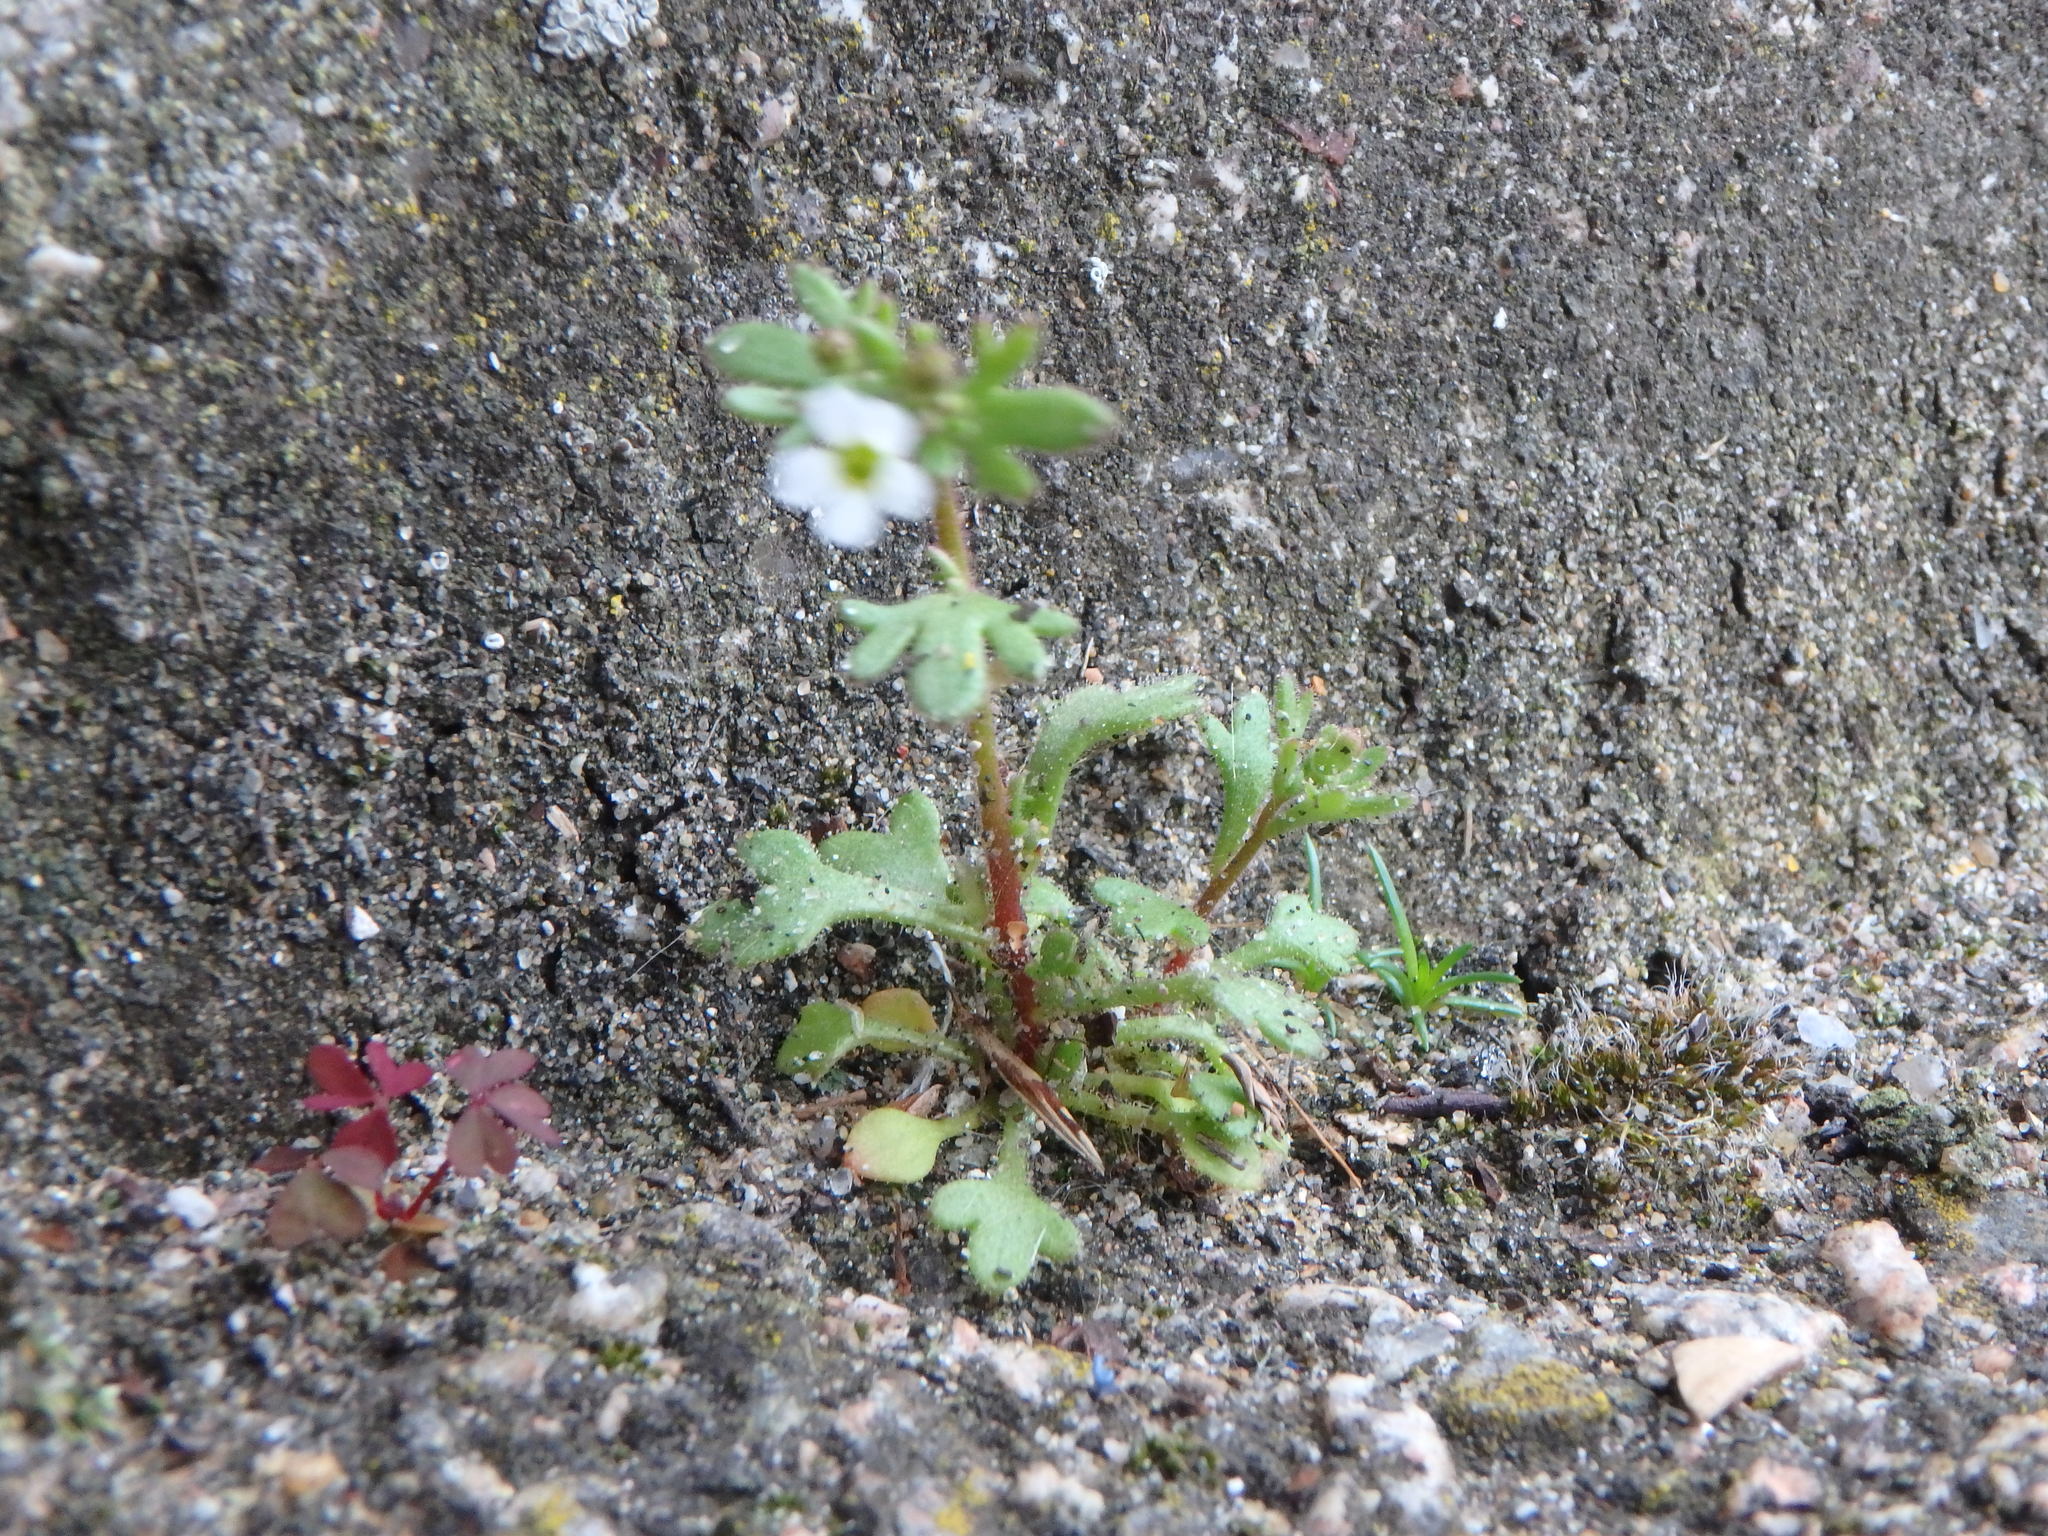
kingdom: Plantae
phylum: Tracheophyta
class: Magnoliopsida
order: Saxifragales
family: Saxifragaceae
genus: Saxifraga
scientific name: Saxifraga tridactylites
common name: Rue-leaved saxifrage
